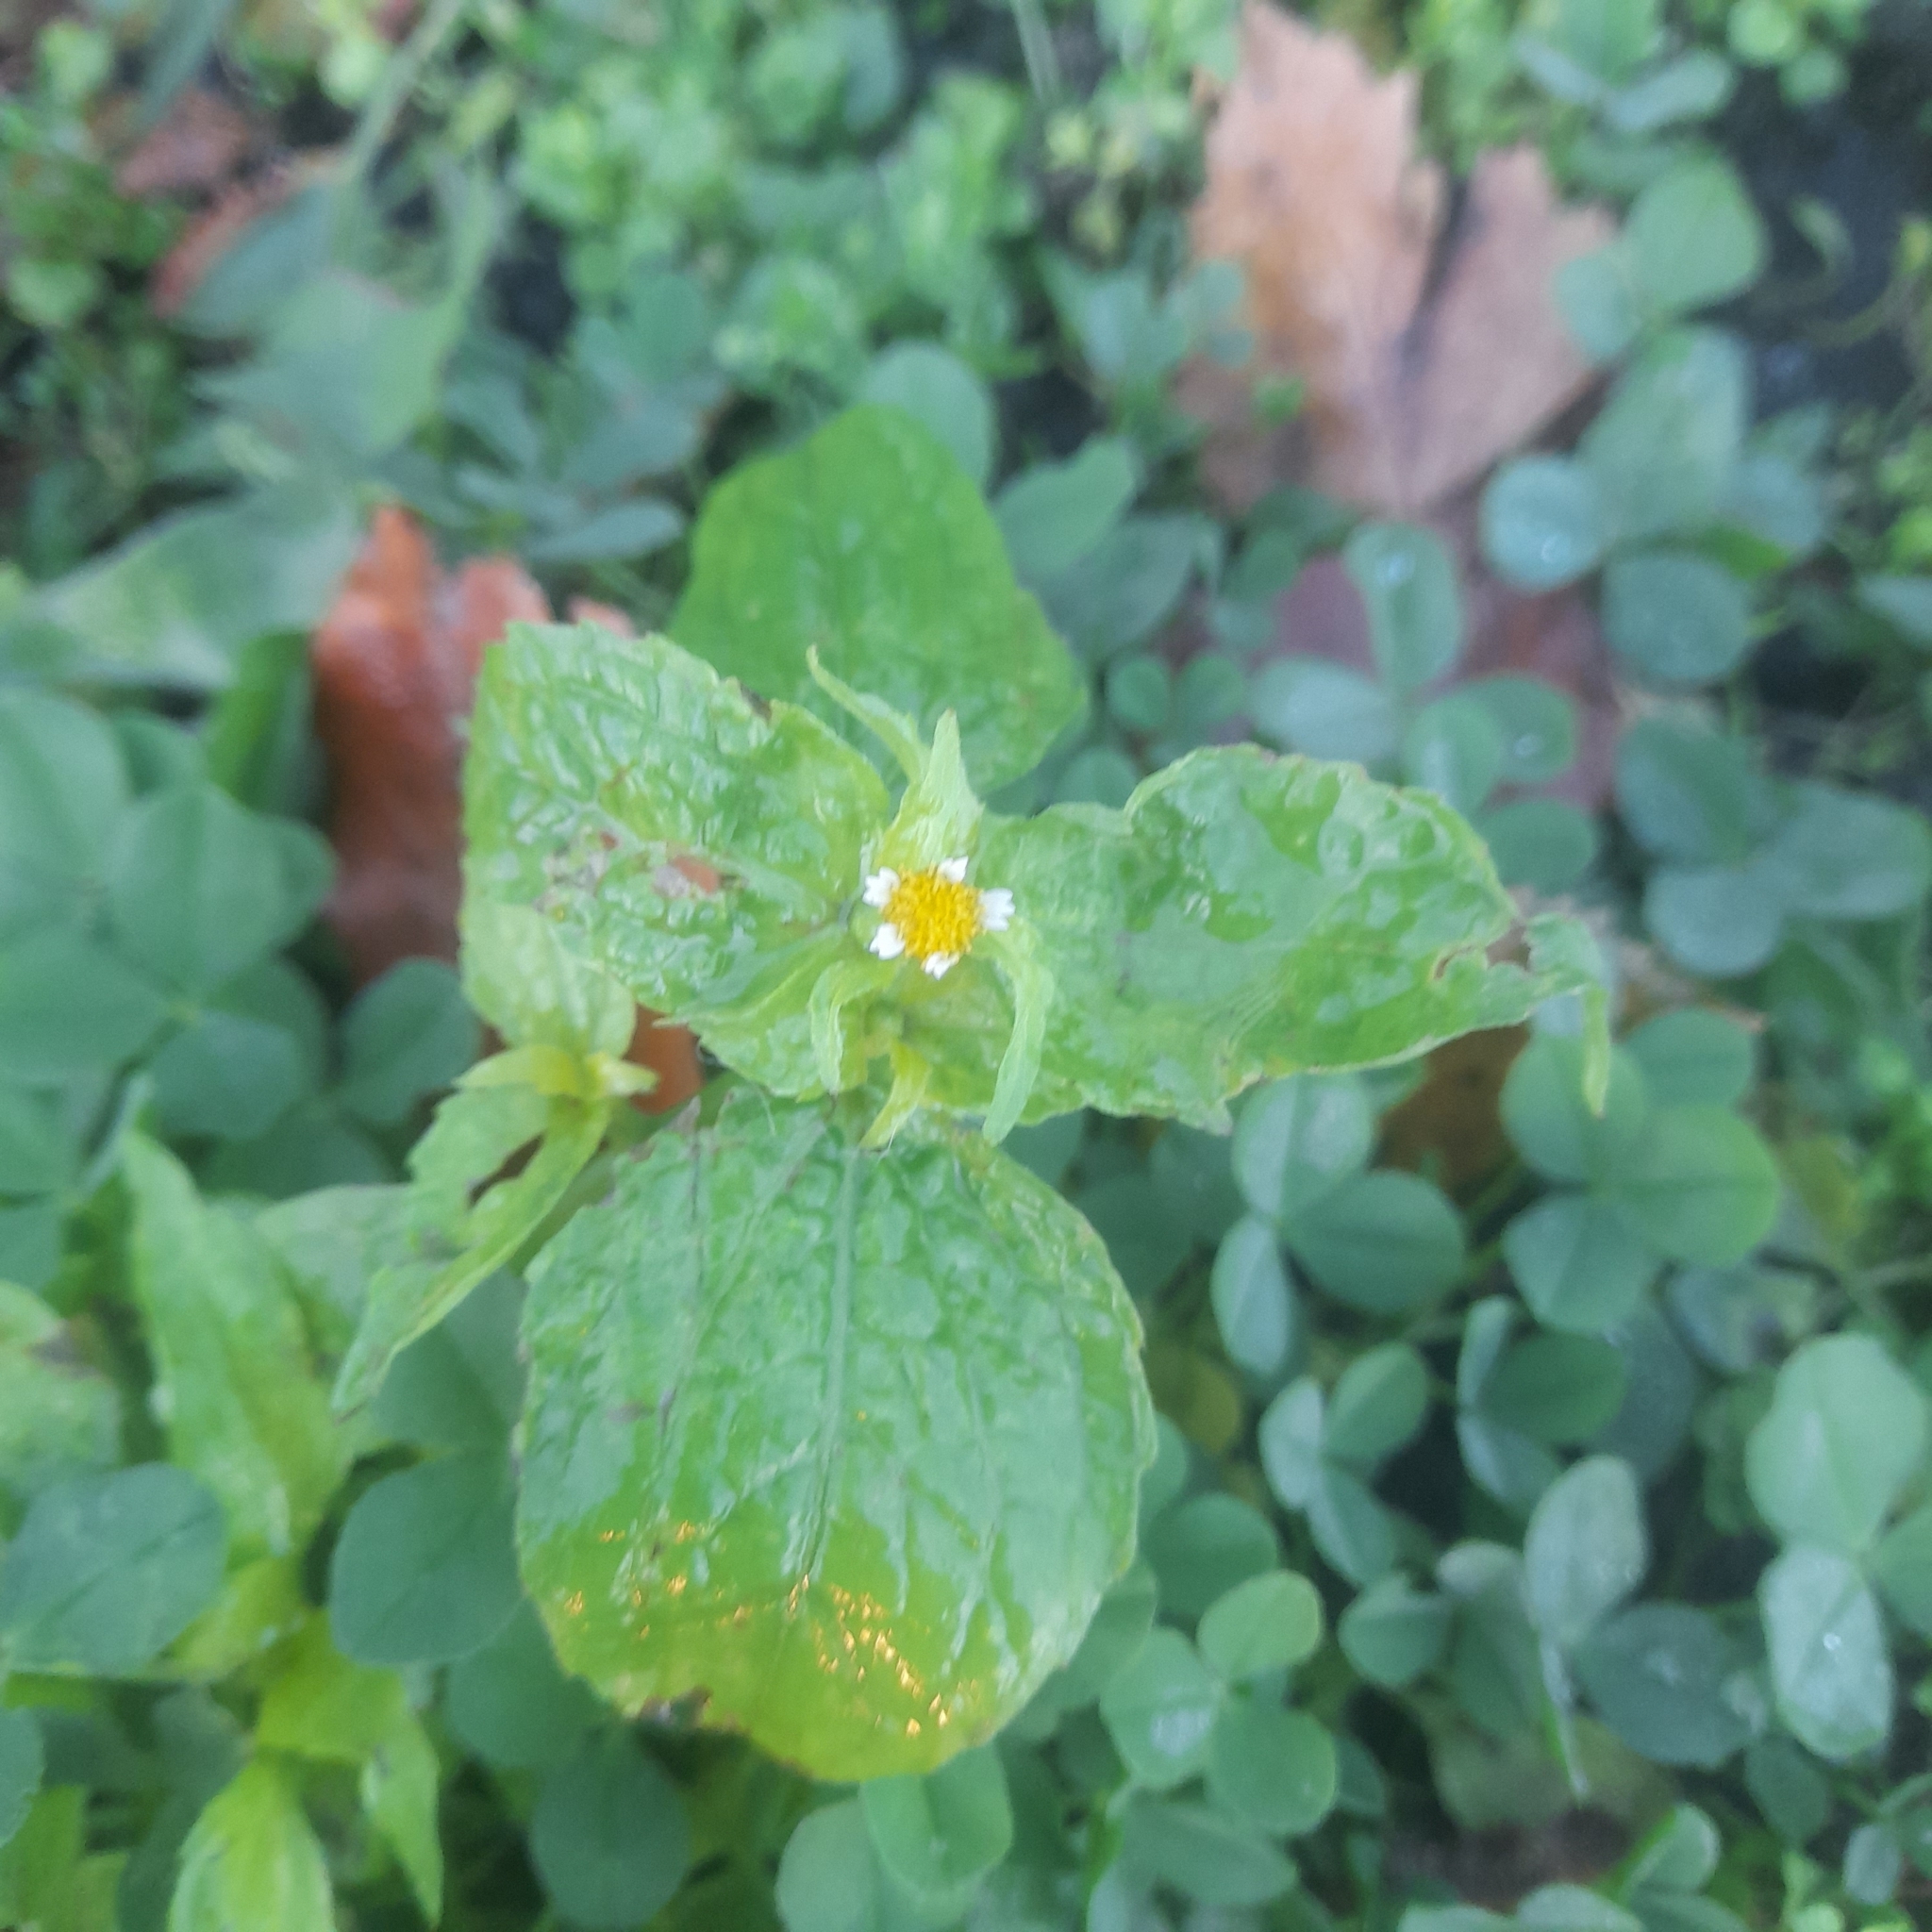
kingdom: Plantae
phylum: Tracheophyta
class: Magnoliopsida
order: Asterales
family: Asteraceae
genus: Galinsoga
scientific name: Galinsoga quadriradiata
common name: Shaggy soldier
